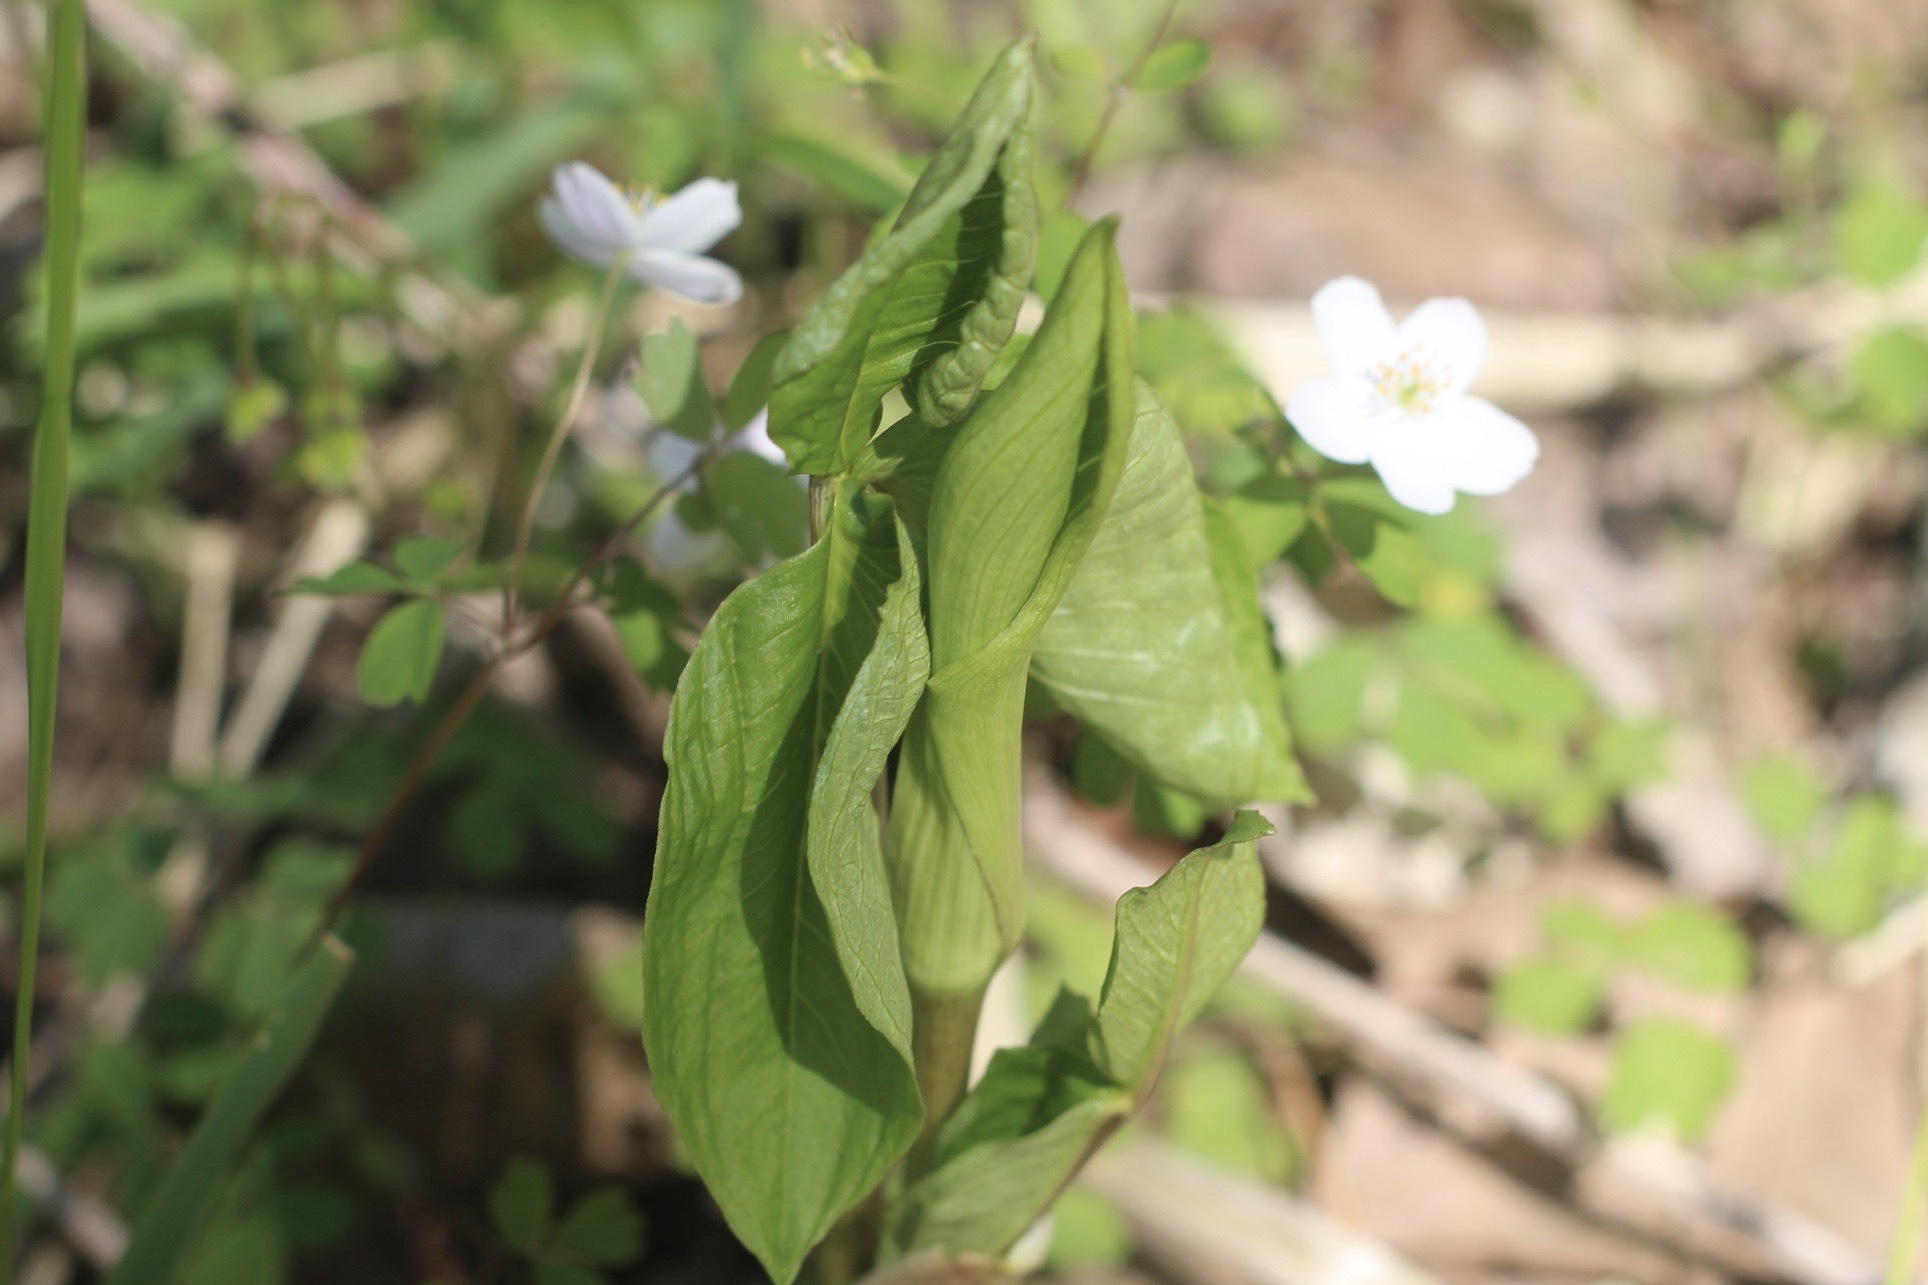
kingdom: Plantae
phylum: Tracheophyta
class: Liliopsida
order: Alismatales
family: Araceae
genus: Arisaema
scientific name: Arisaema triphyllum
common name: Jack-in-the-pulpit
